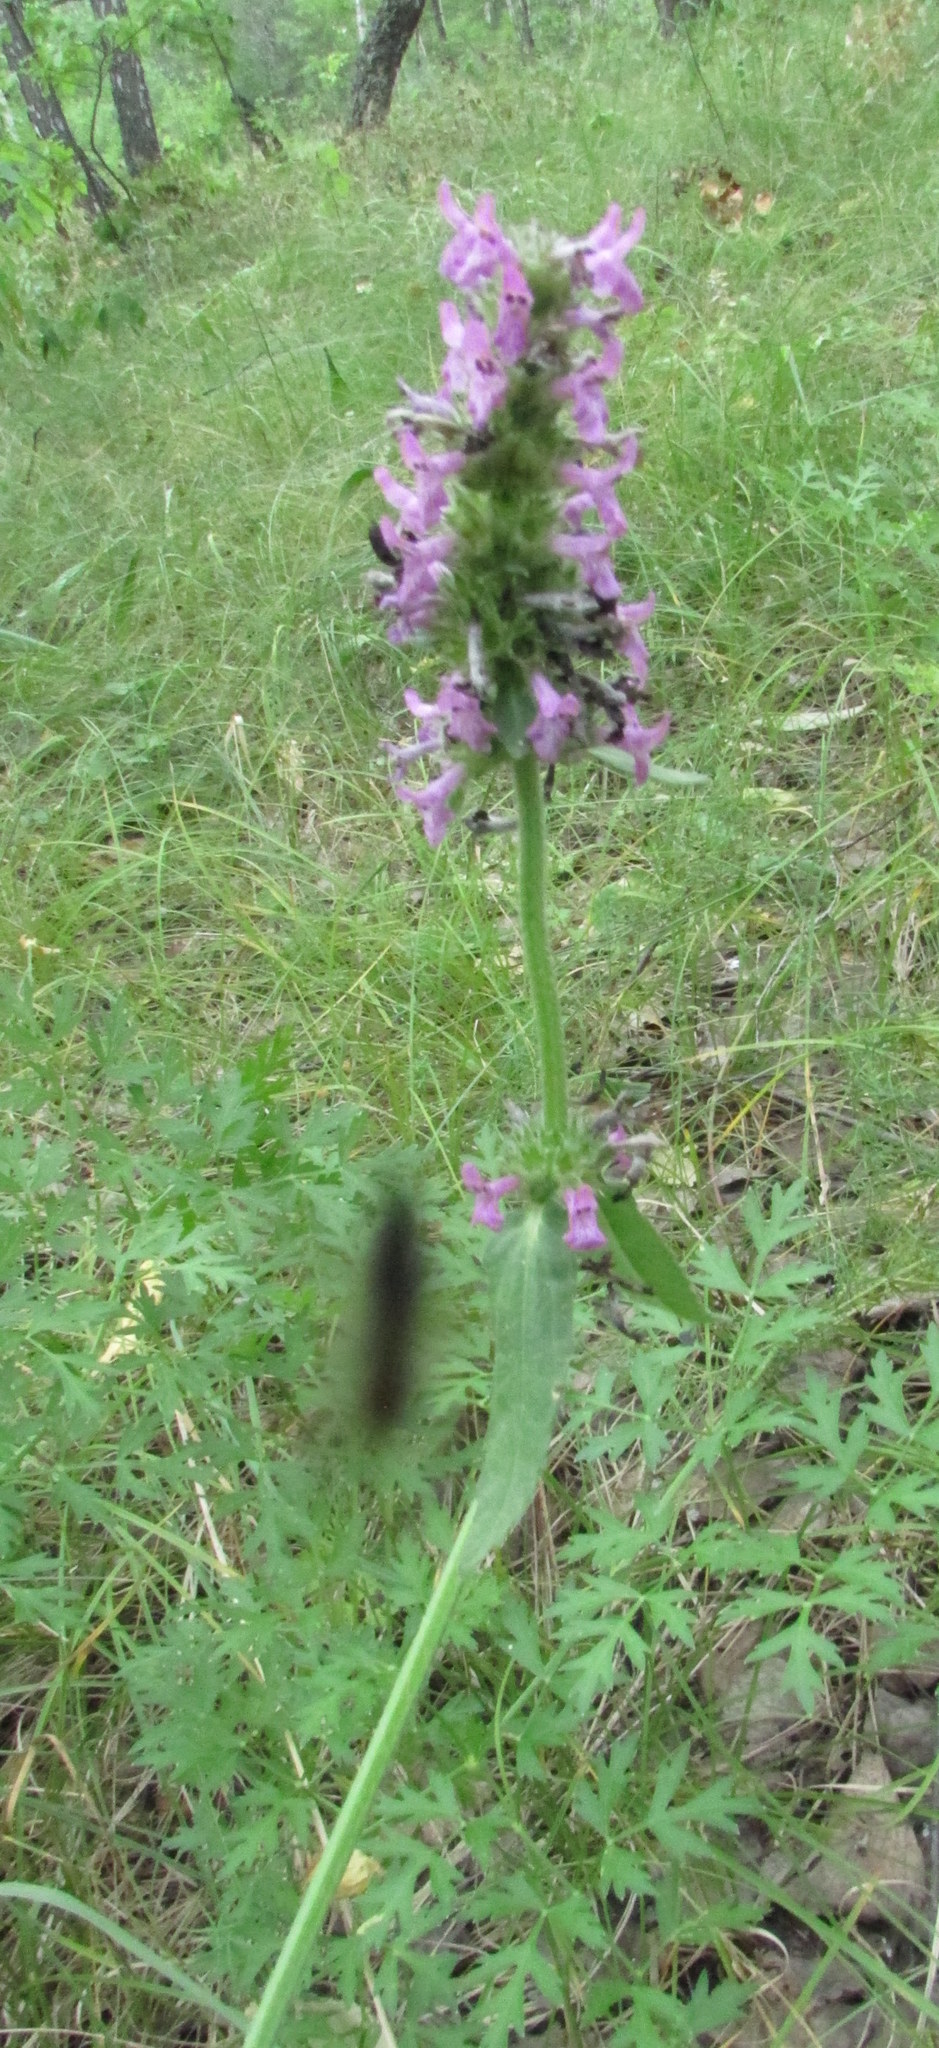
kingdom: Plantae
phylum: Tracheophyta
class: Magnoliopsida
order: Lamiales
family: Lamiaceae
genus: Betonica
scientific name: Betonica officinalis
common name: Bishop's-wort
